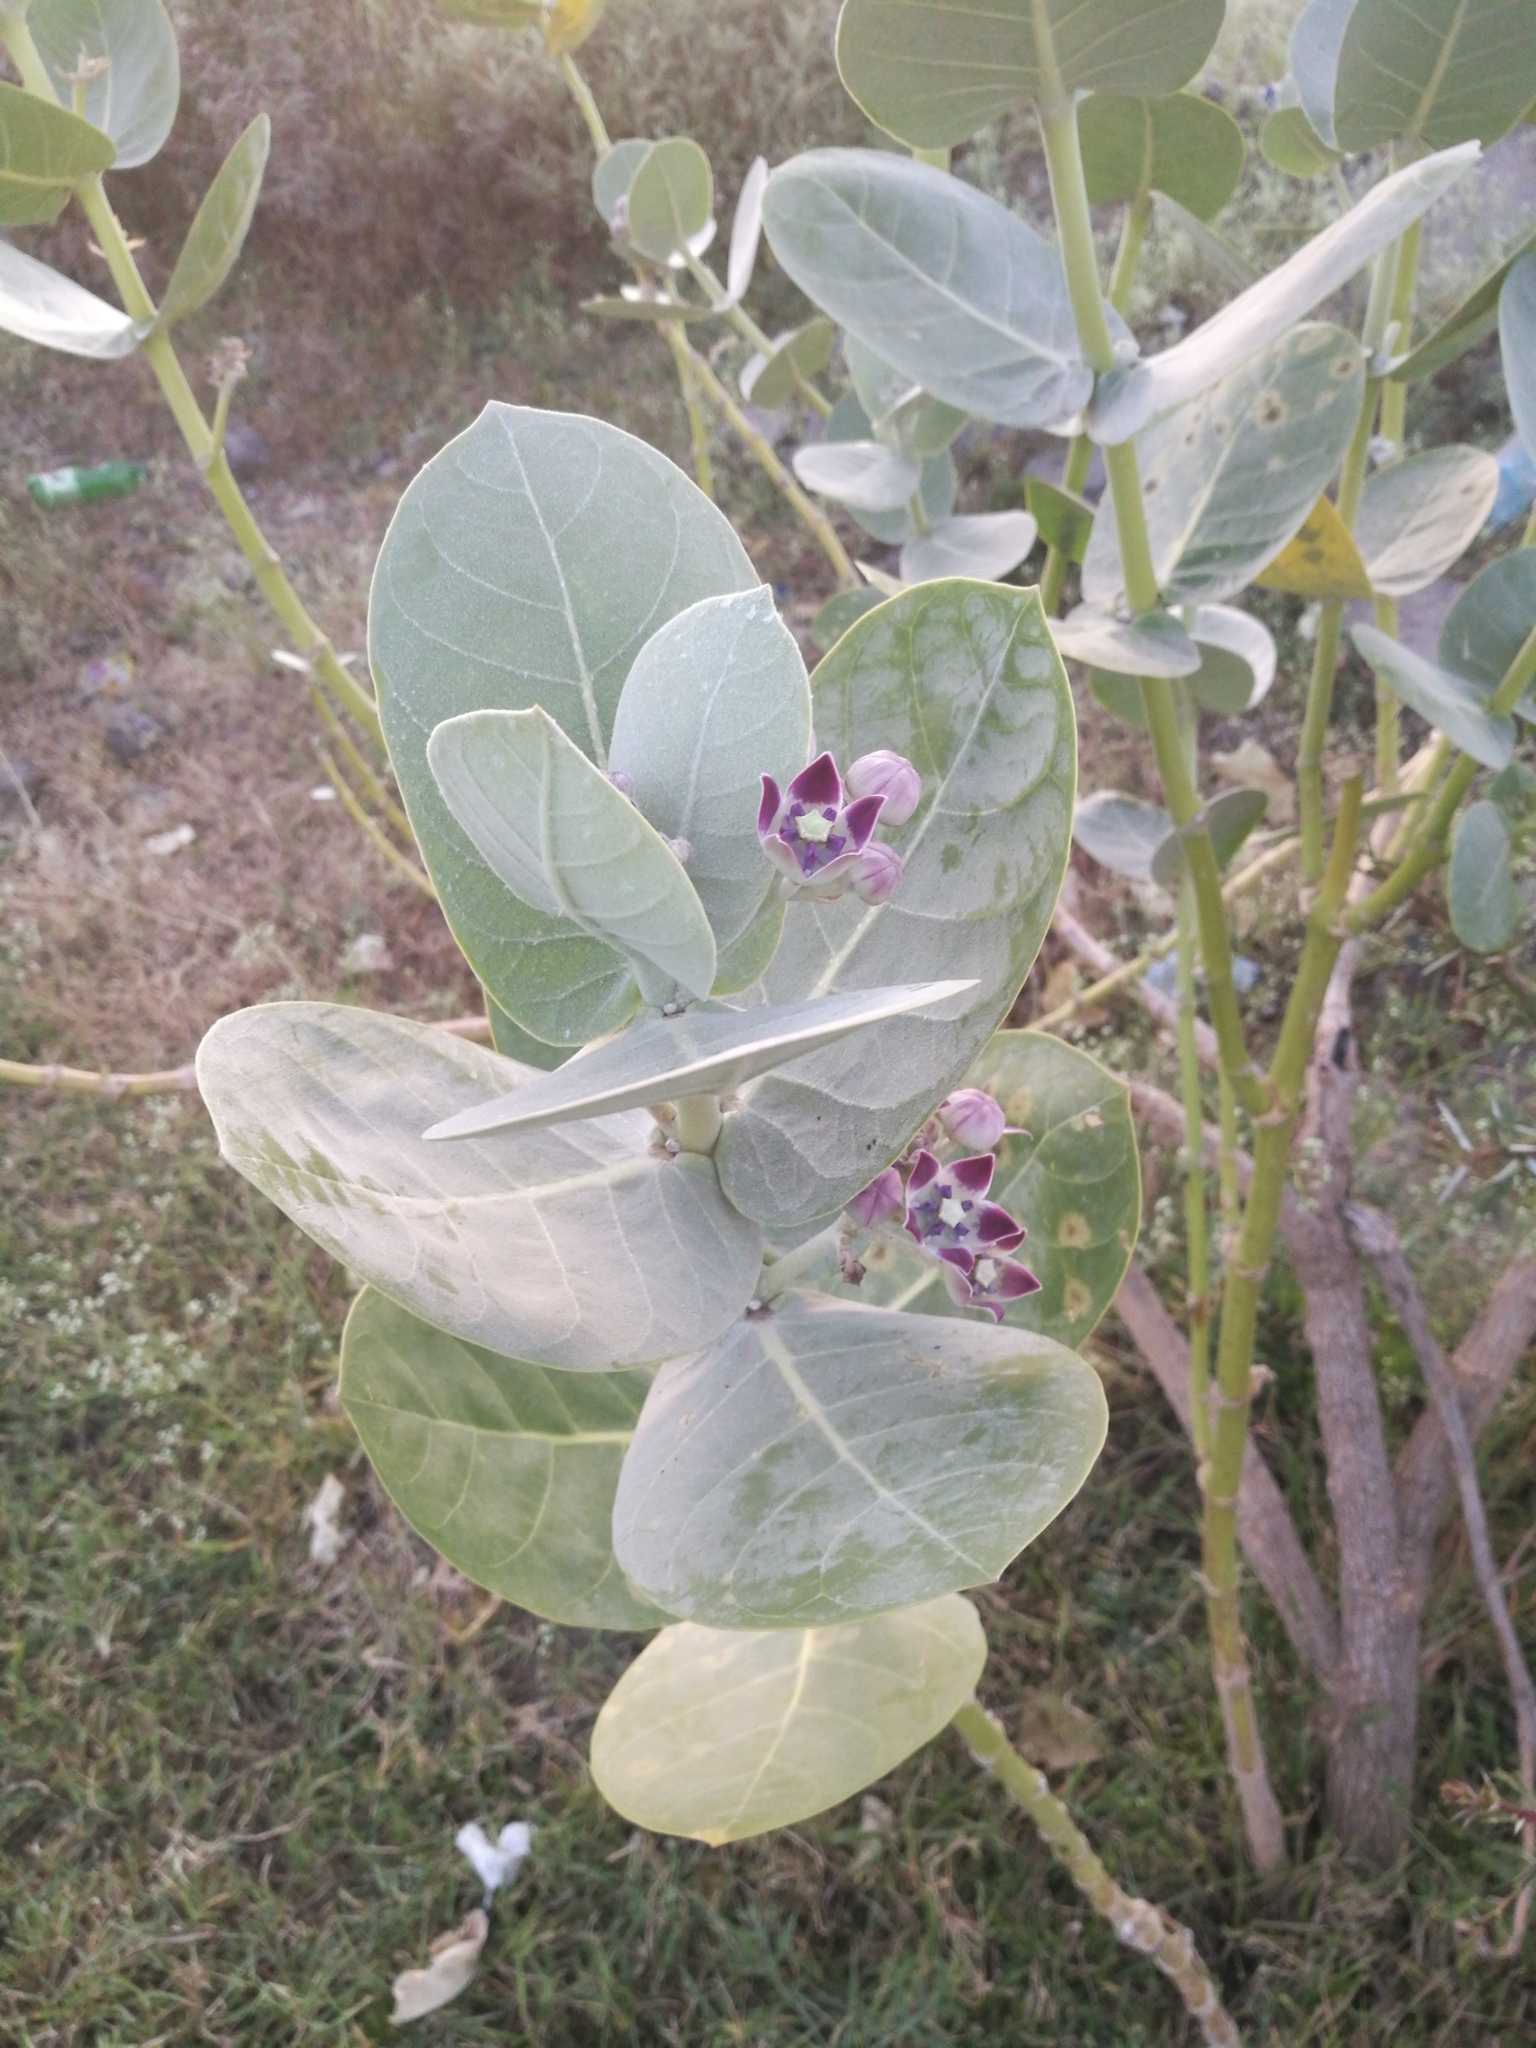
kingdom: Plantae
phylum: Tracheophyta
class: Magnoliopsida
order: Gentianales
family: Apocynaceae
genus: Calotropis
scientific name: Calotropis procera
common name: Roostertree
